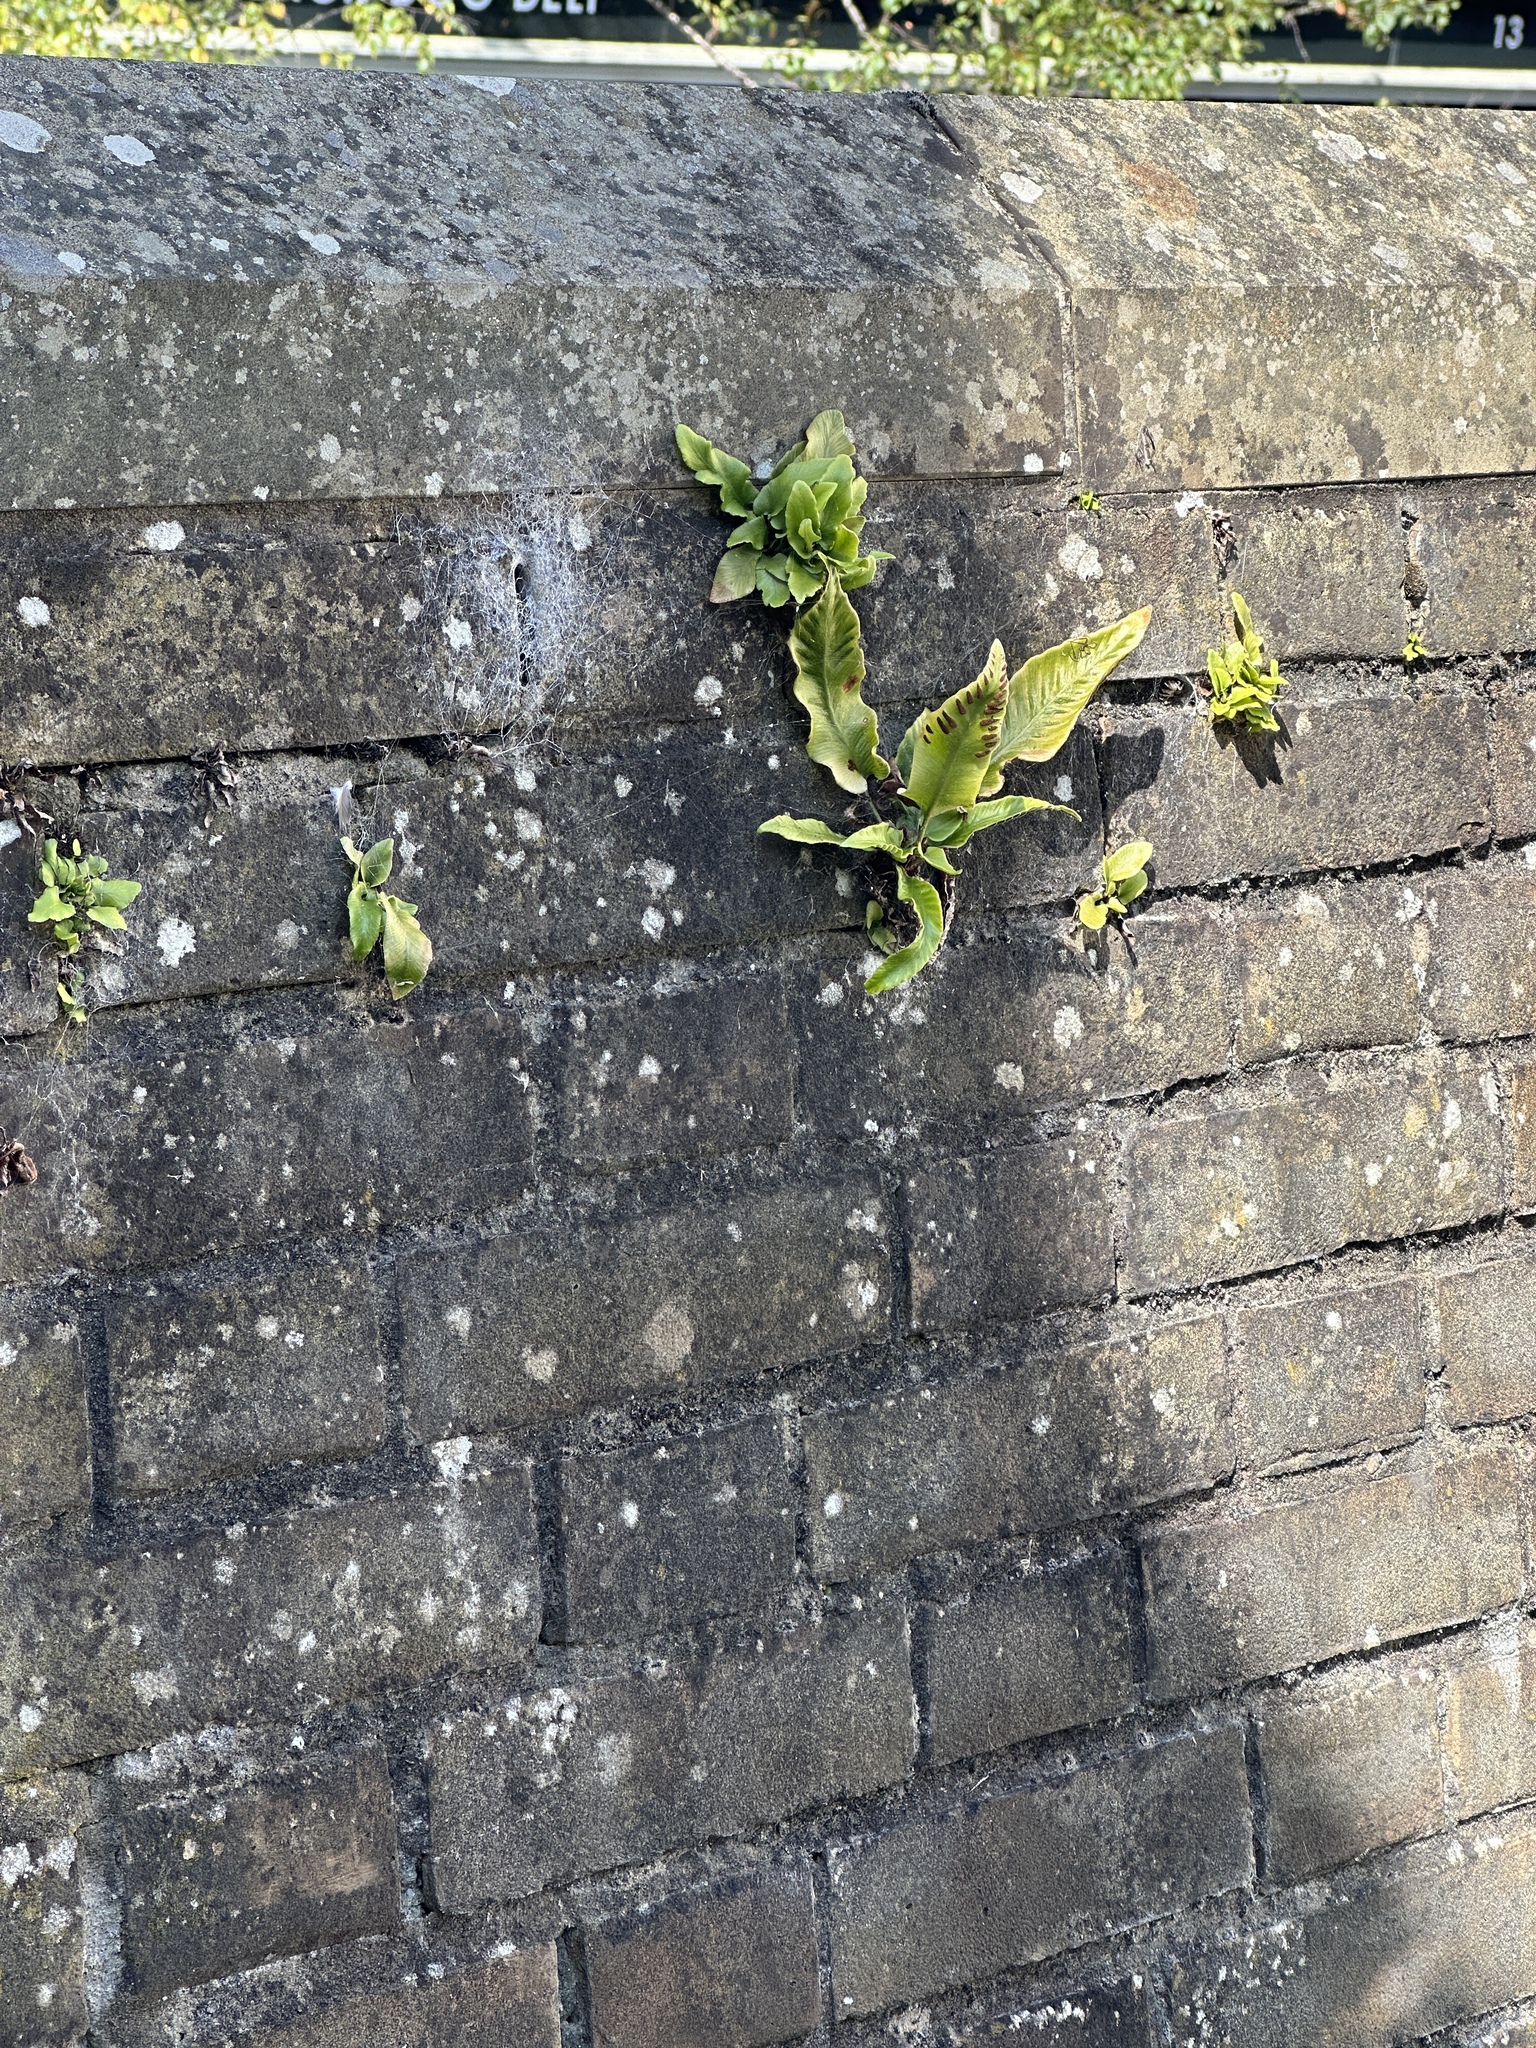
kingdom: Plantae
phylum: Tracheophyta
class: Polypodiopsida
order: Polypodiales
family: Aspleniaceae
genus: Asplenium
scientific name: Asplenium scolopendrium
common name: Hart's-tongue fern
